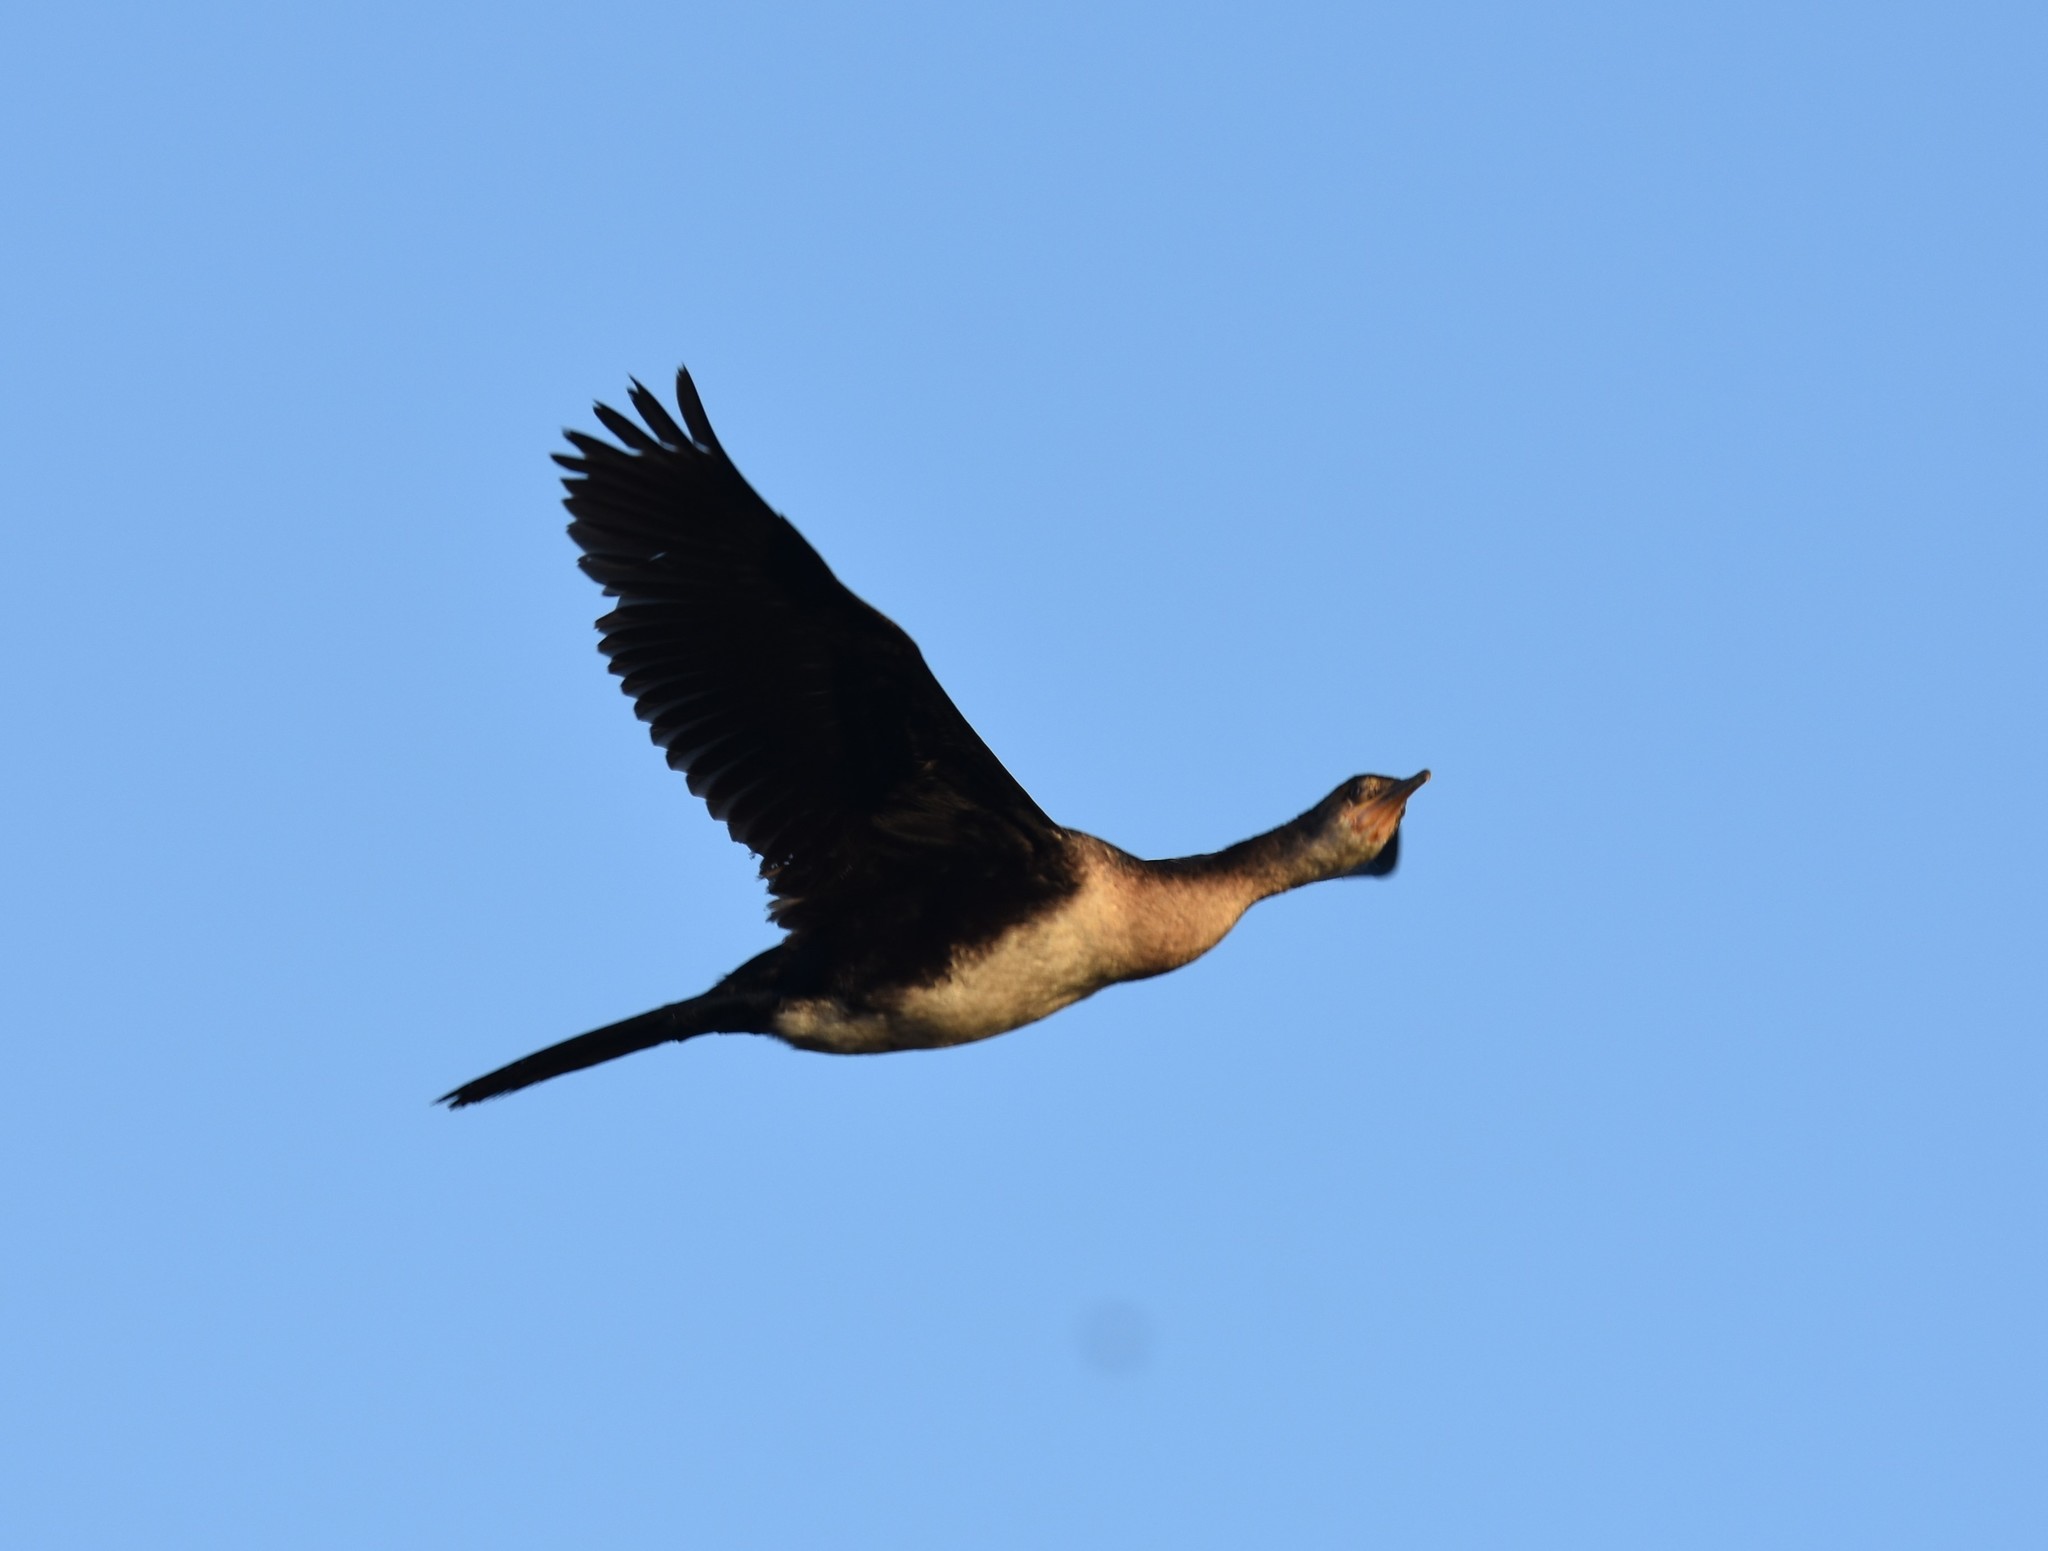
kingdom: Animalia
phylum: Chordata
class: Aves
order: Suliformes
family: Phalacrocoracidae
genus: Microcarbo
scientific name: Microcarbo africanus
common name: Long-tailed cormorant
